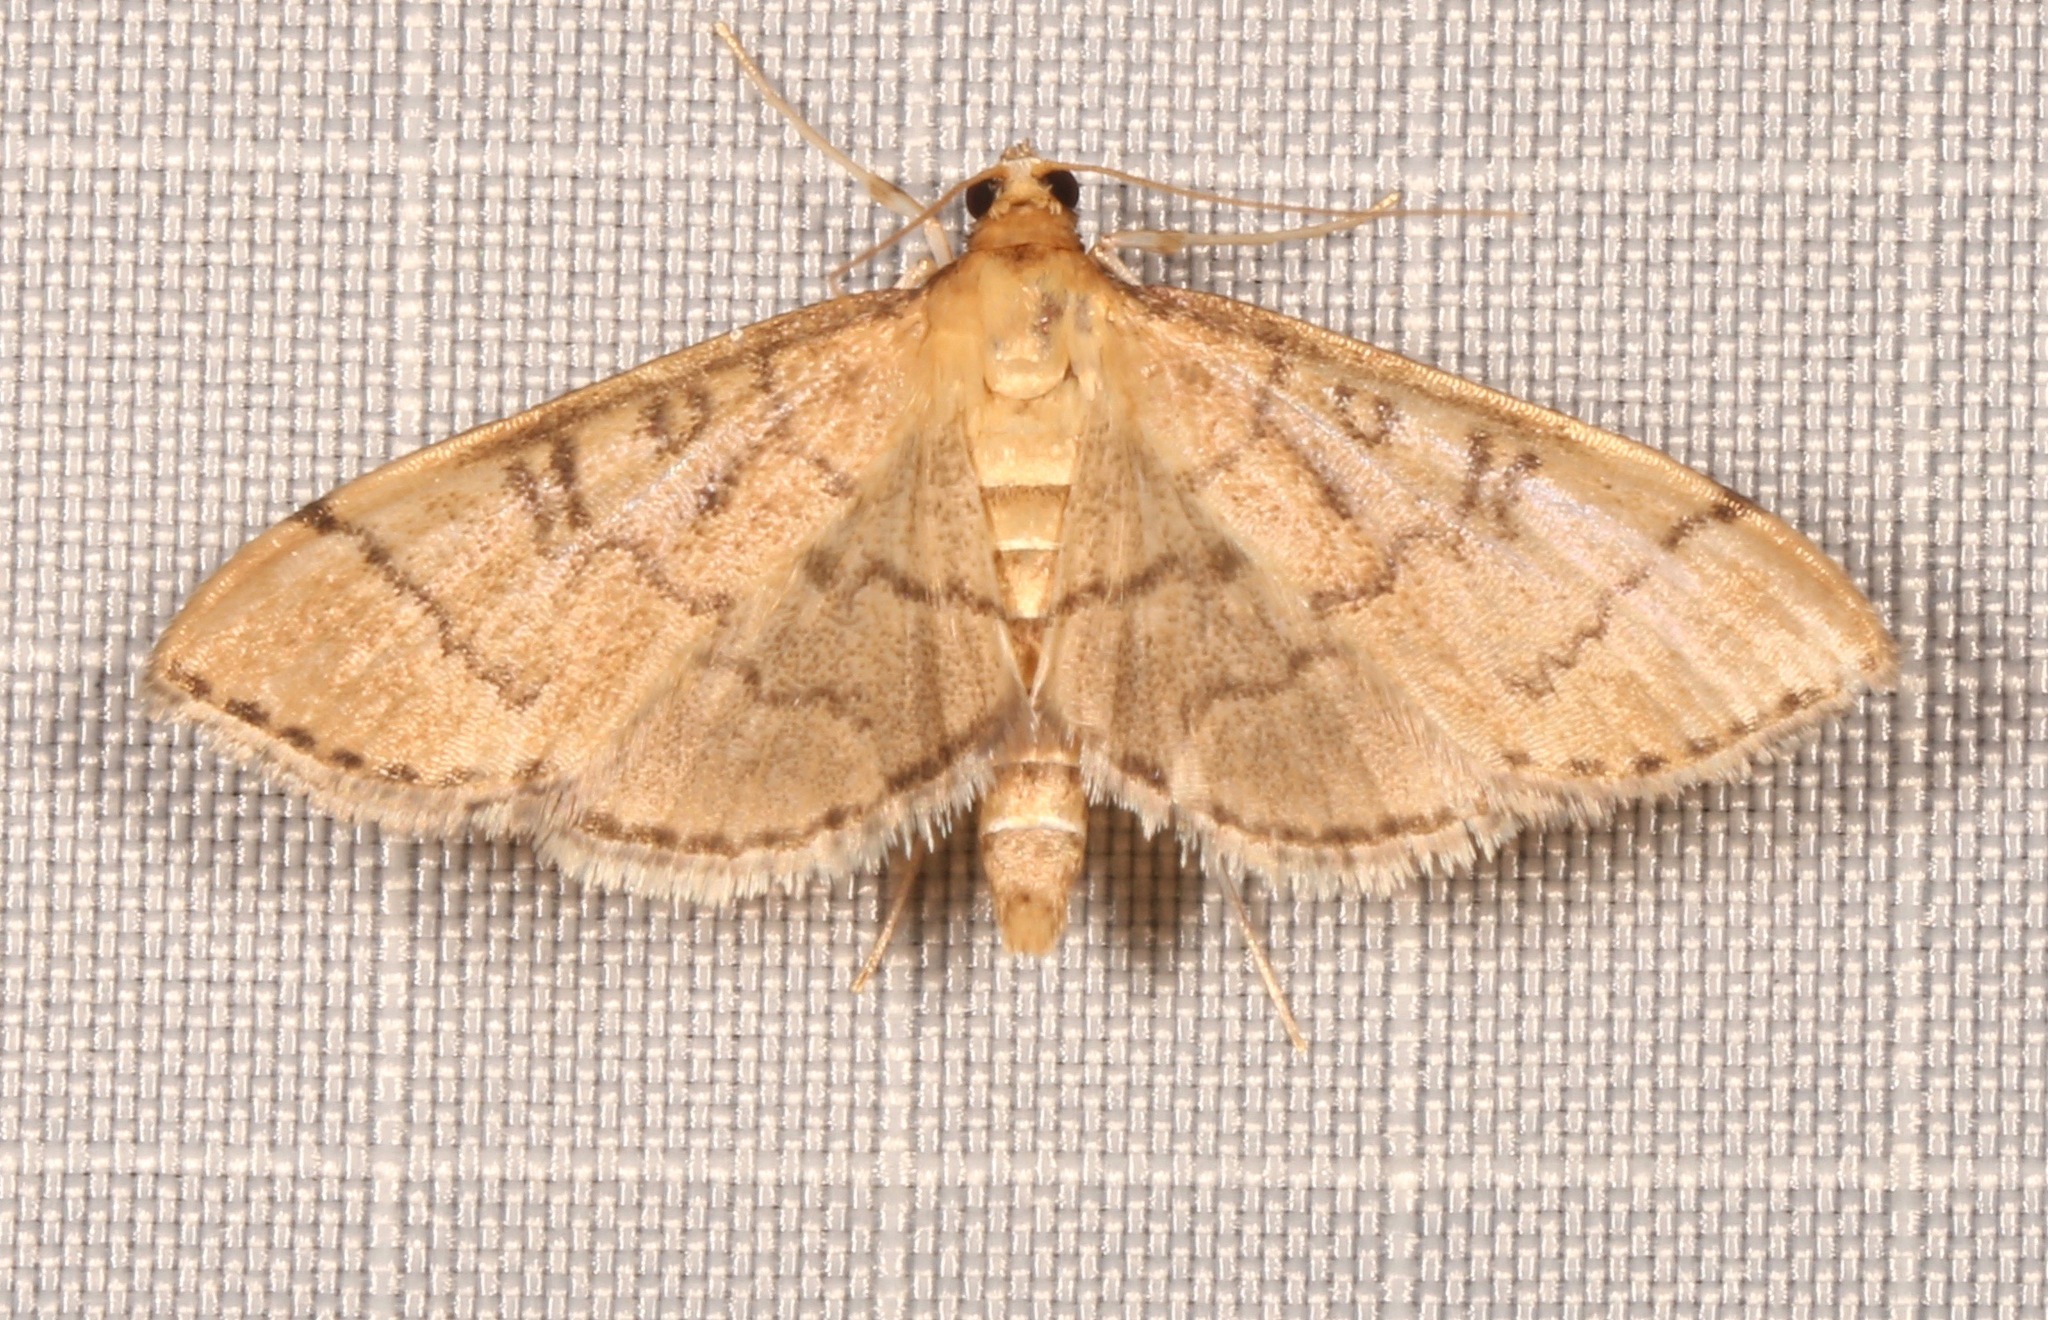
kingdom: Animalia
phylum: Arthropoda
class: Insecta
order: Lepidoptera
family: Crambidae
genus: Lamprosema
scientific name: Lamprosema Blepharomastix ranalis
